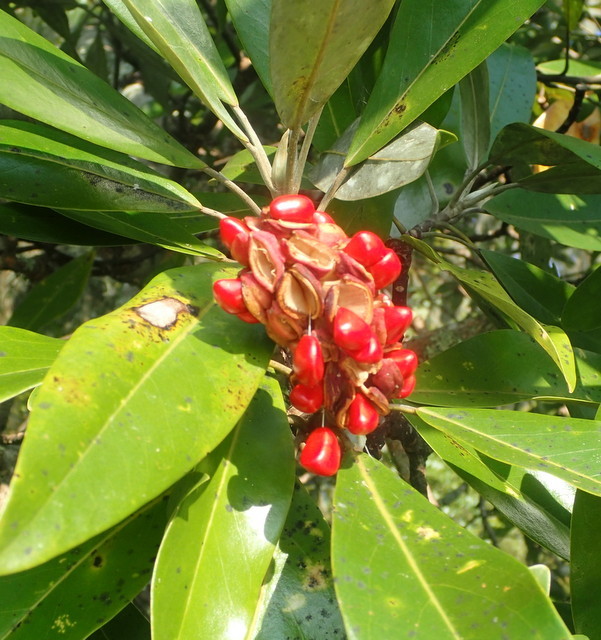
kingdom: Plantae
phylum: Tracheophyta
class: Magnoliopsida
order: Magnoliales
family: Magnoliaceae
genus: Magnolia
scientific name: Magnolia virginiana
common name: Swamp bay
